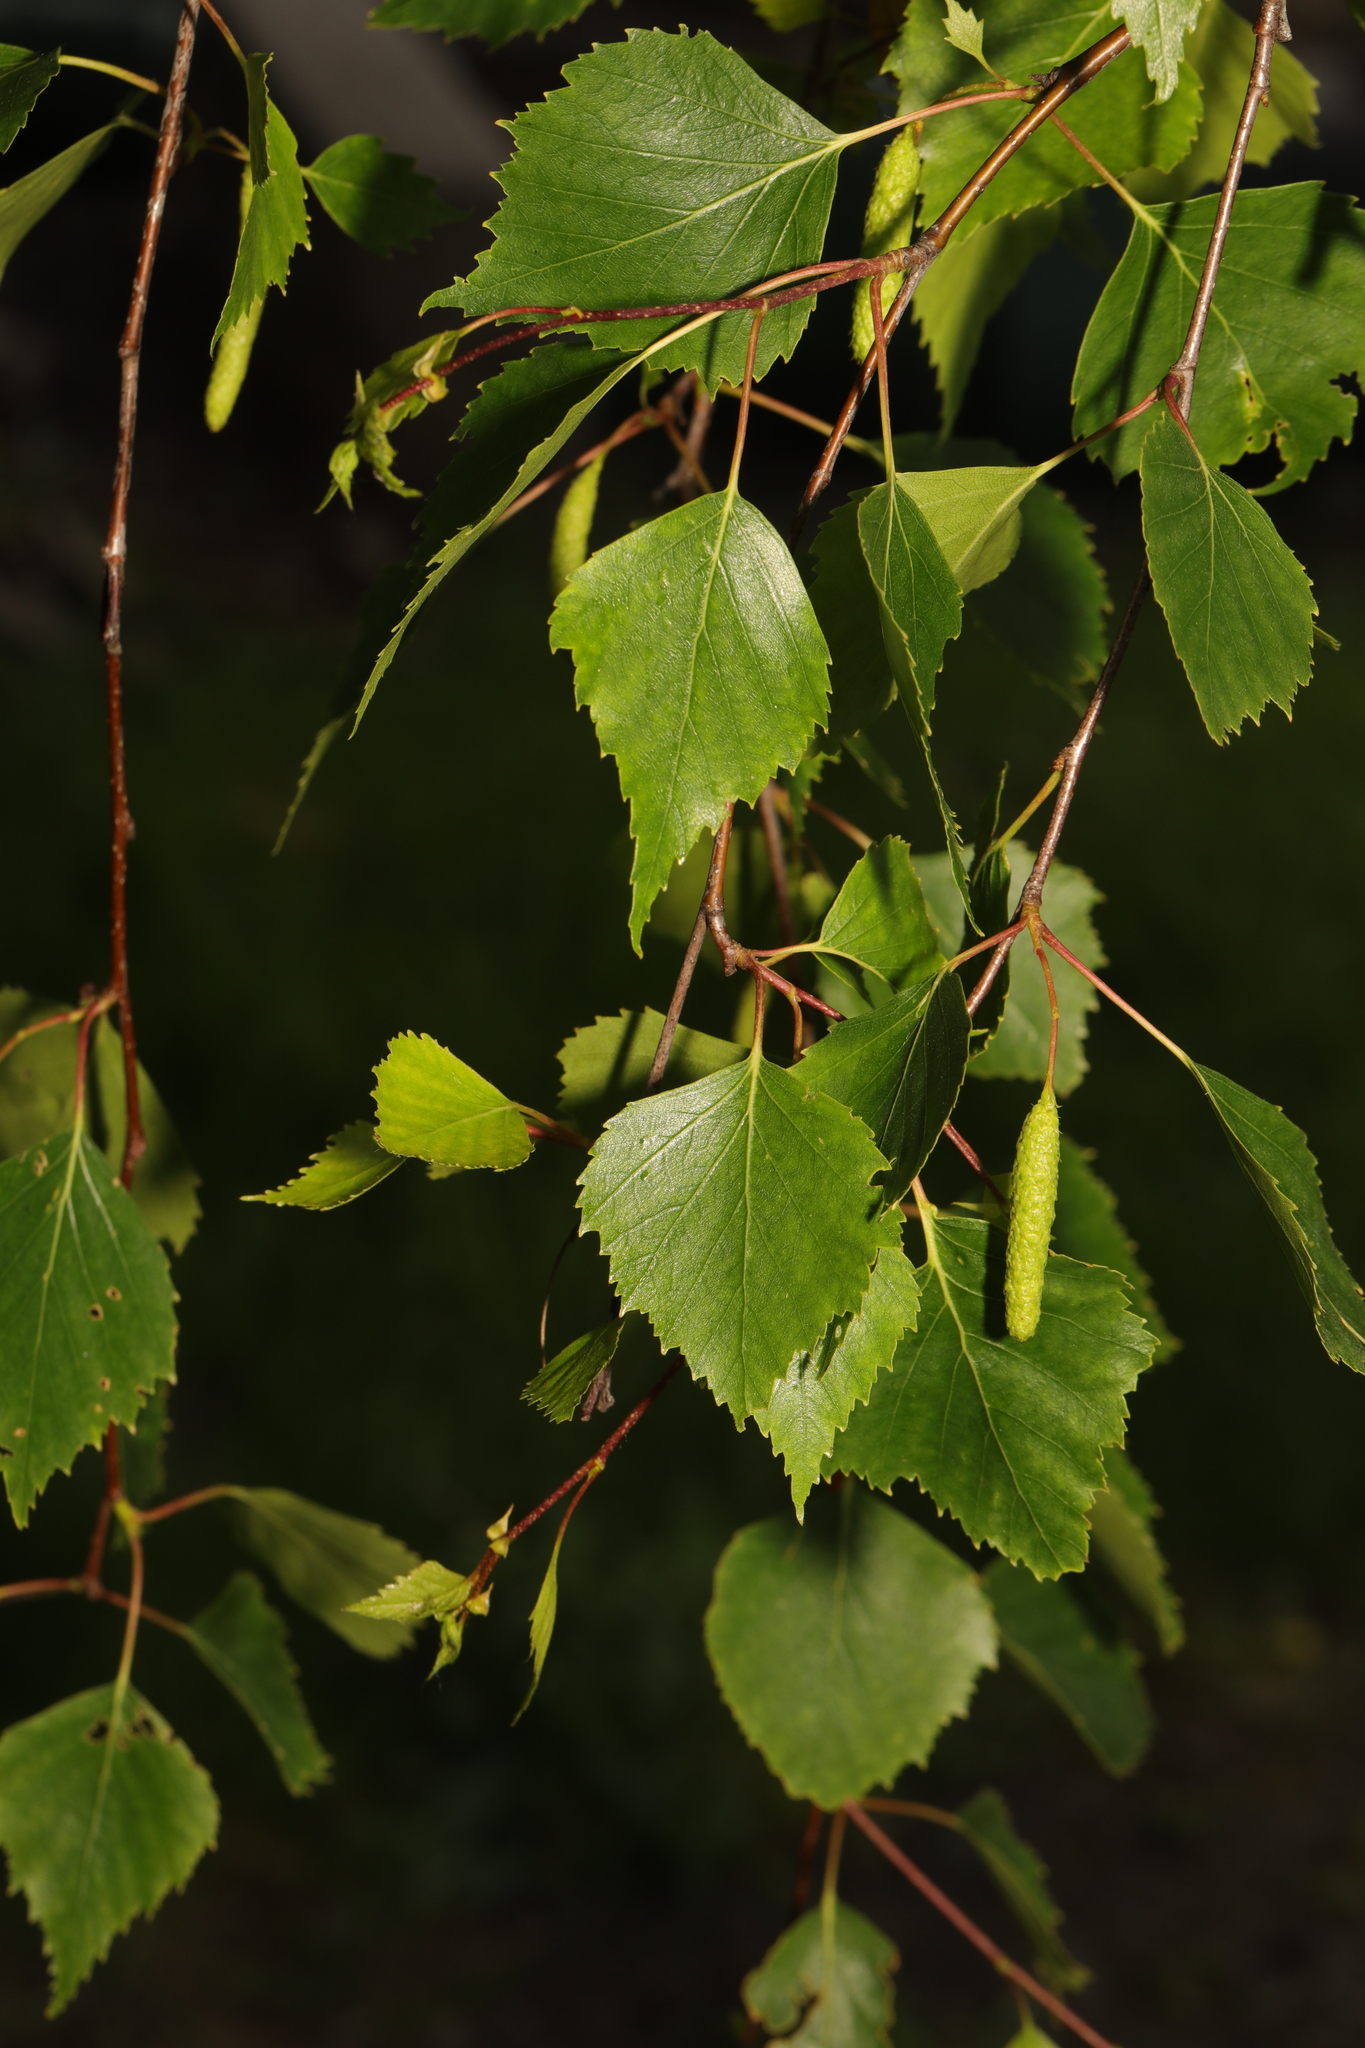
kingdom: Plantae
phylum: Tracheophyta
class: Magnoliopsida
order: Fagales
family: Betulaceae
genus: Betula
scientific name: Betula pendula
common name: Silver birch
